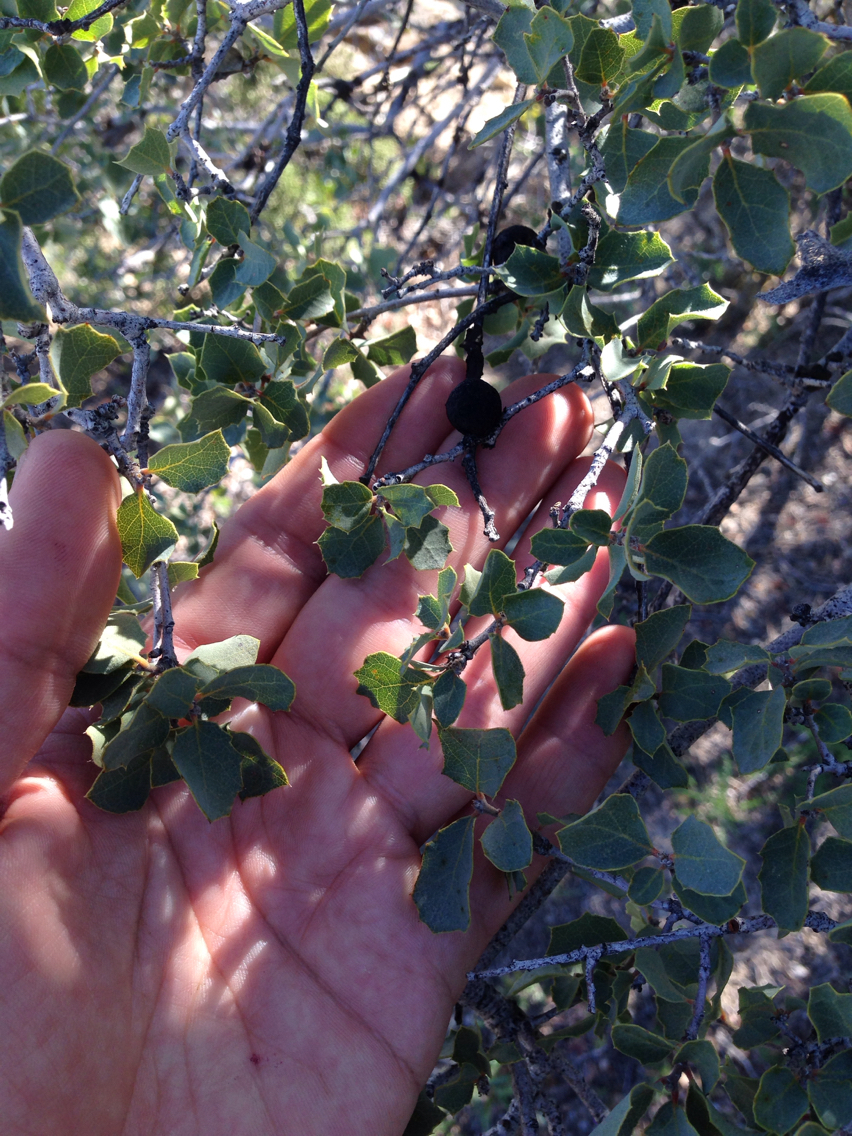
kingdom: Plantae
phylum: Tracheophyta
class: Magnoliopsida
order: Fagales
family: Fagaceae
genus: Quercus
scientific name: Quercus alvordiana
